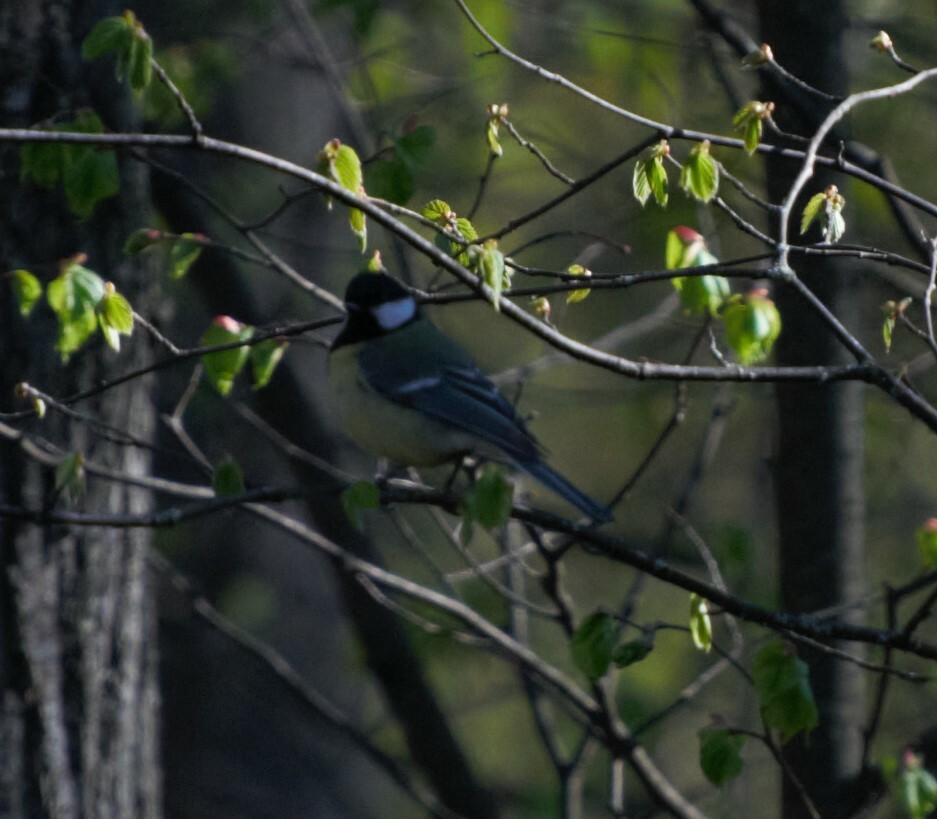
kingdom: Animalia
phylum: Chordata
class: Aves
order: Passeriformes
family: Paridae
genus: Parus
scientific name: Parus major
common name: Great tit
